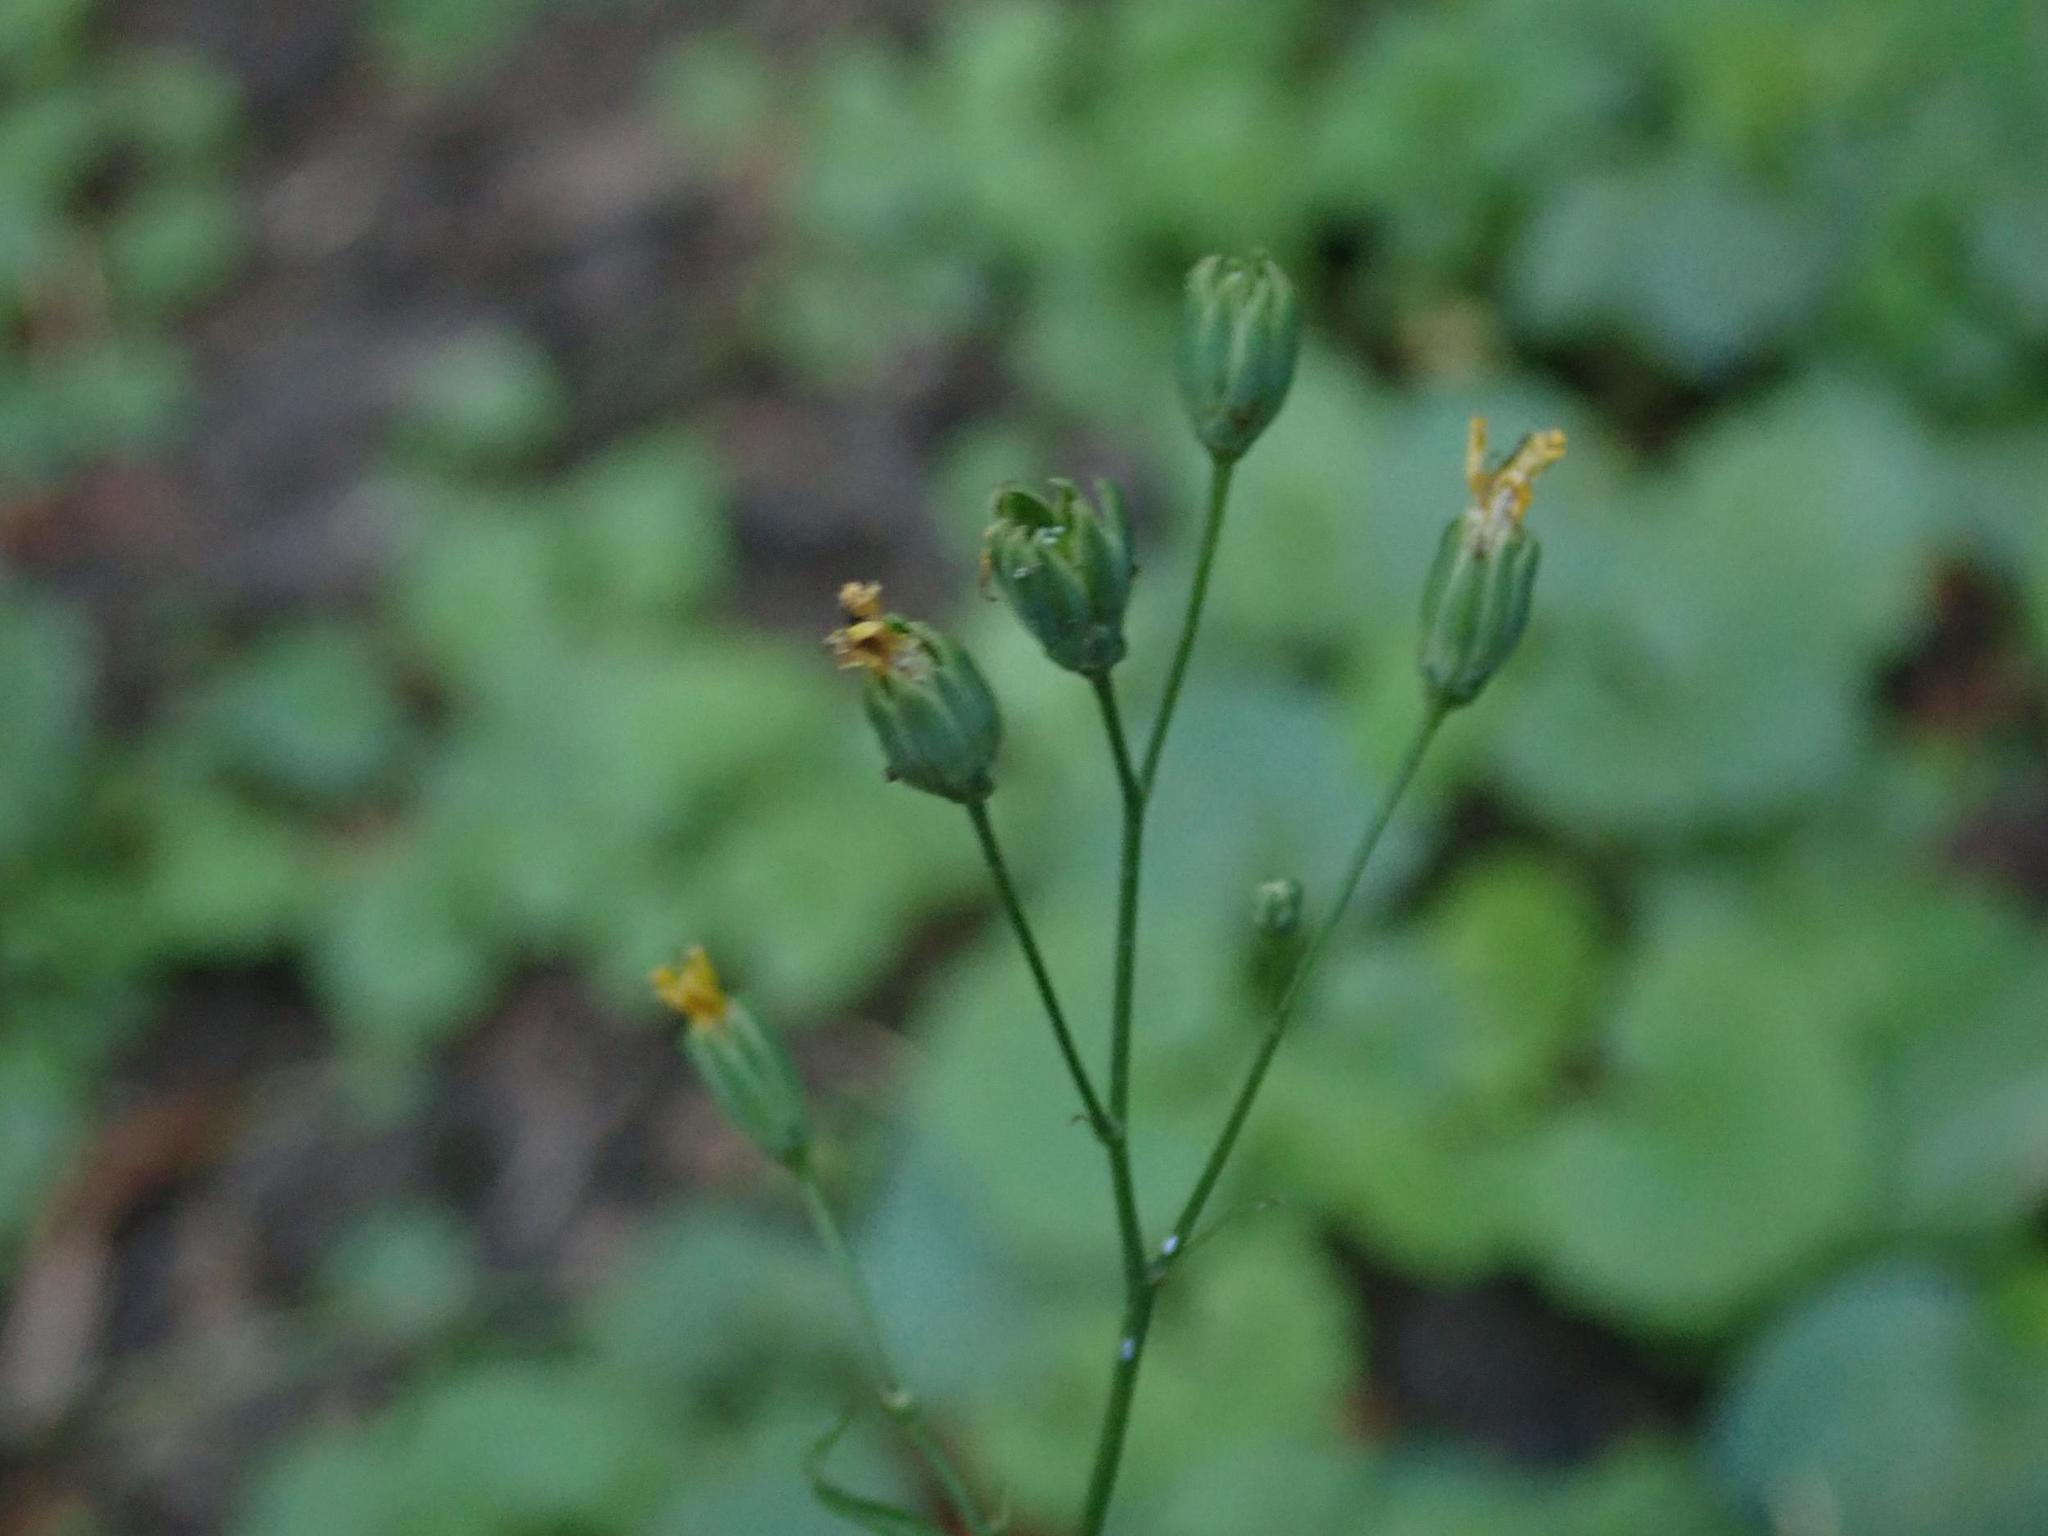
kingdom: Plantae
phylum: Tracheophyta
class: Magnoliopsida
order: Asterales
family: Asteraceae
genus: Lapsana
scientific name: Lapsana communis
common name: Nipplewort
